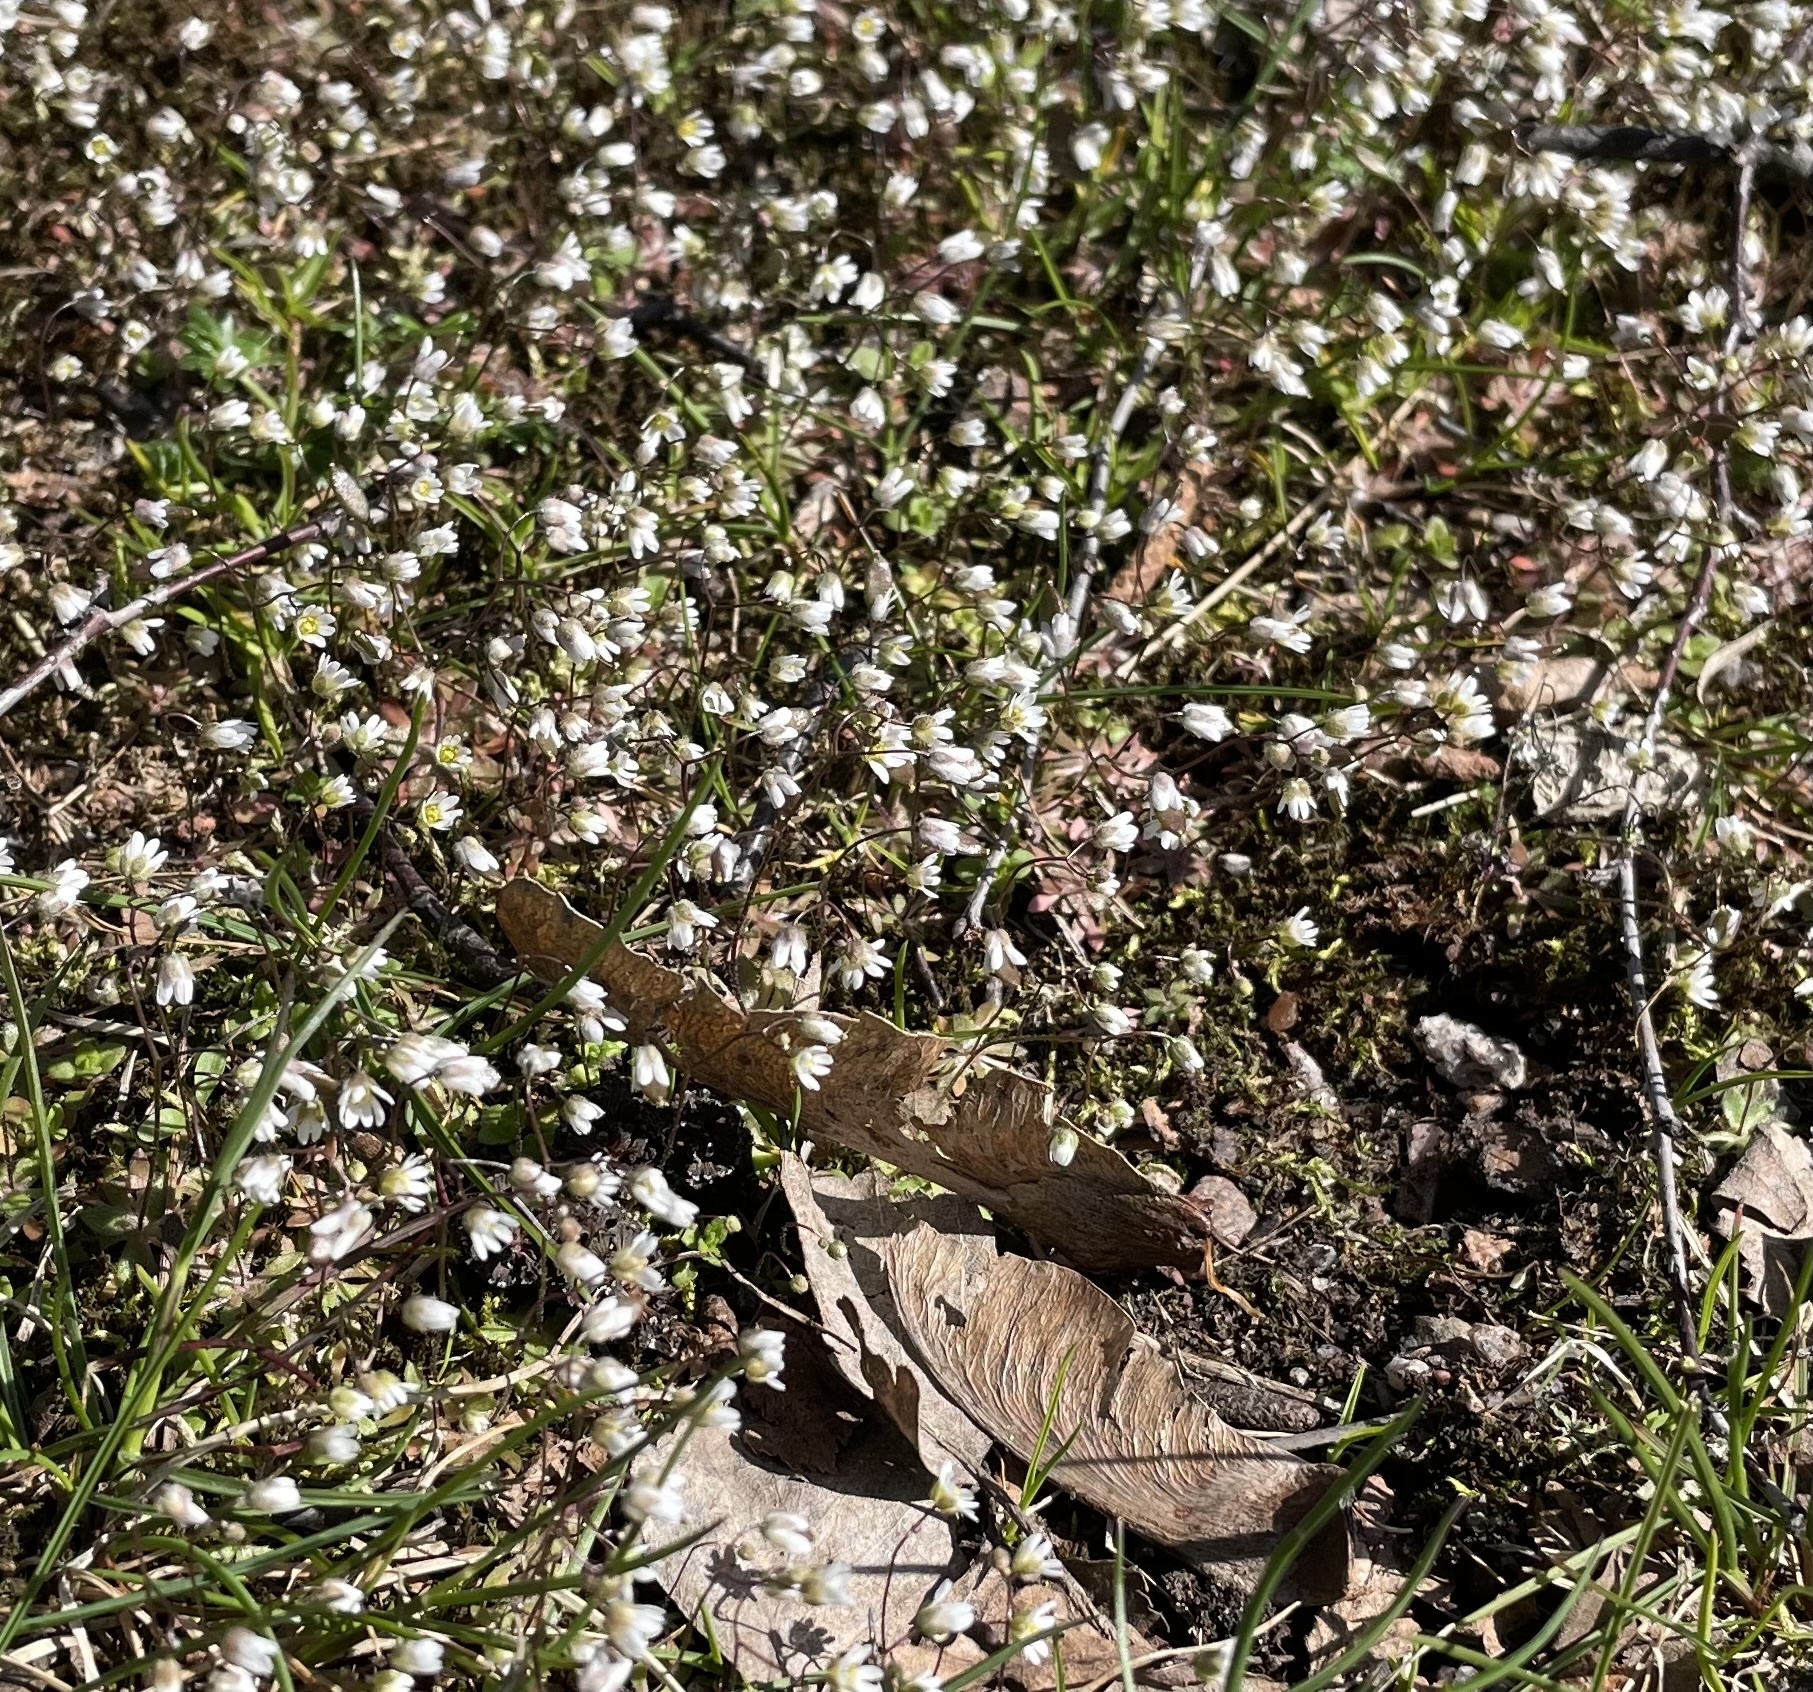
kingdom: Plantae
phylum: Tracheophyta
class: Magnoliopsida
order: Brassicales
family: Brassicaceae
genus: Draba
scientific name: Draba verna
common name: Spring draba
